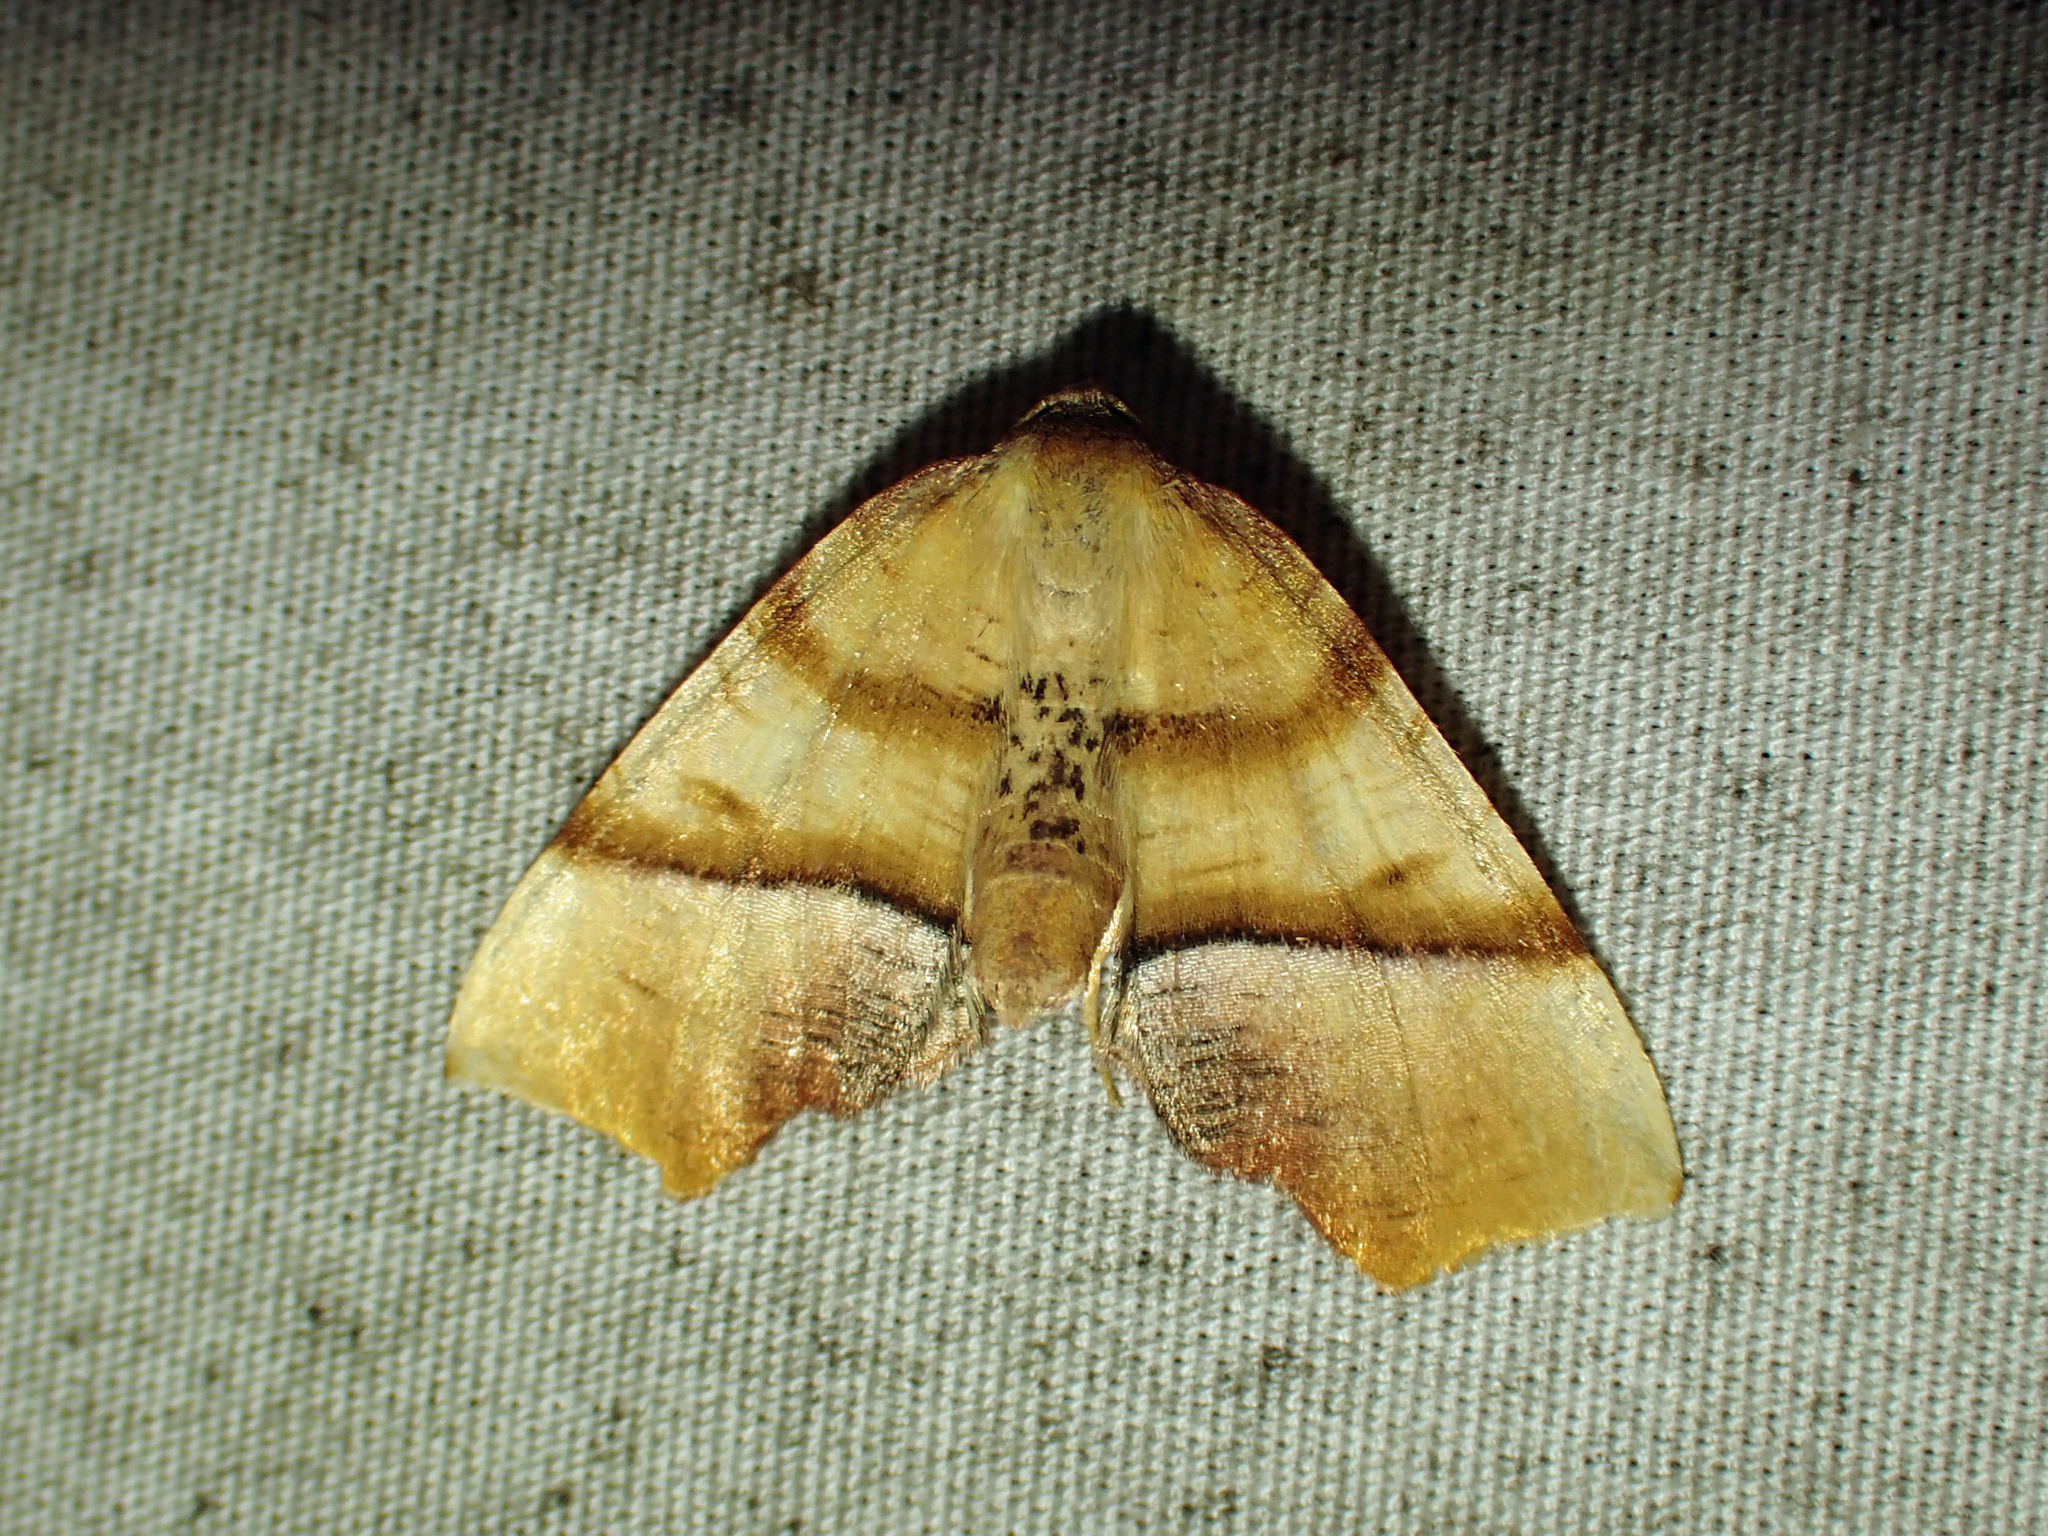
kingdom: Animalia
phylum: Arthropoda
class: Insecta
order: Lepidoptera
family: Geometridae
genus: Plagodis
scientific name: Plagodis phlogosaria
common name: Straight-lined plagodis
